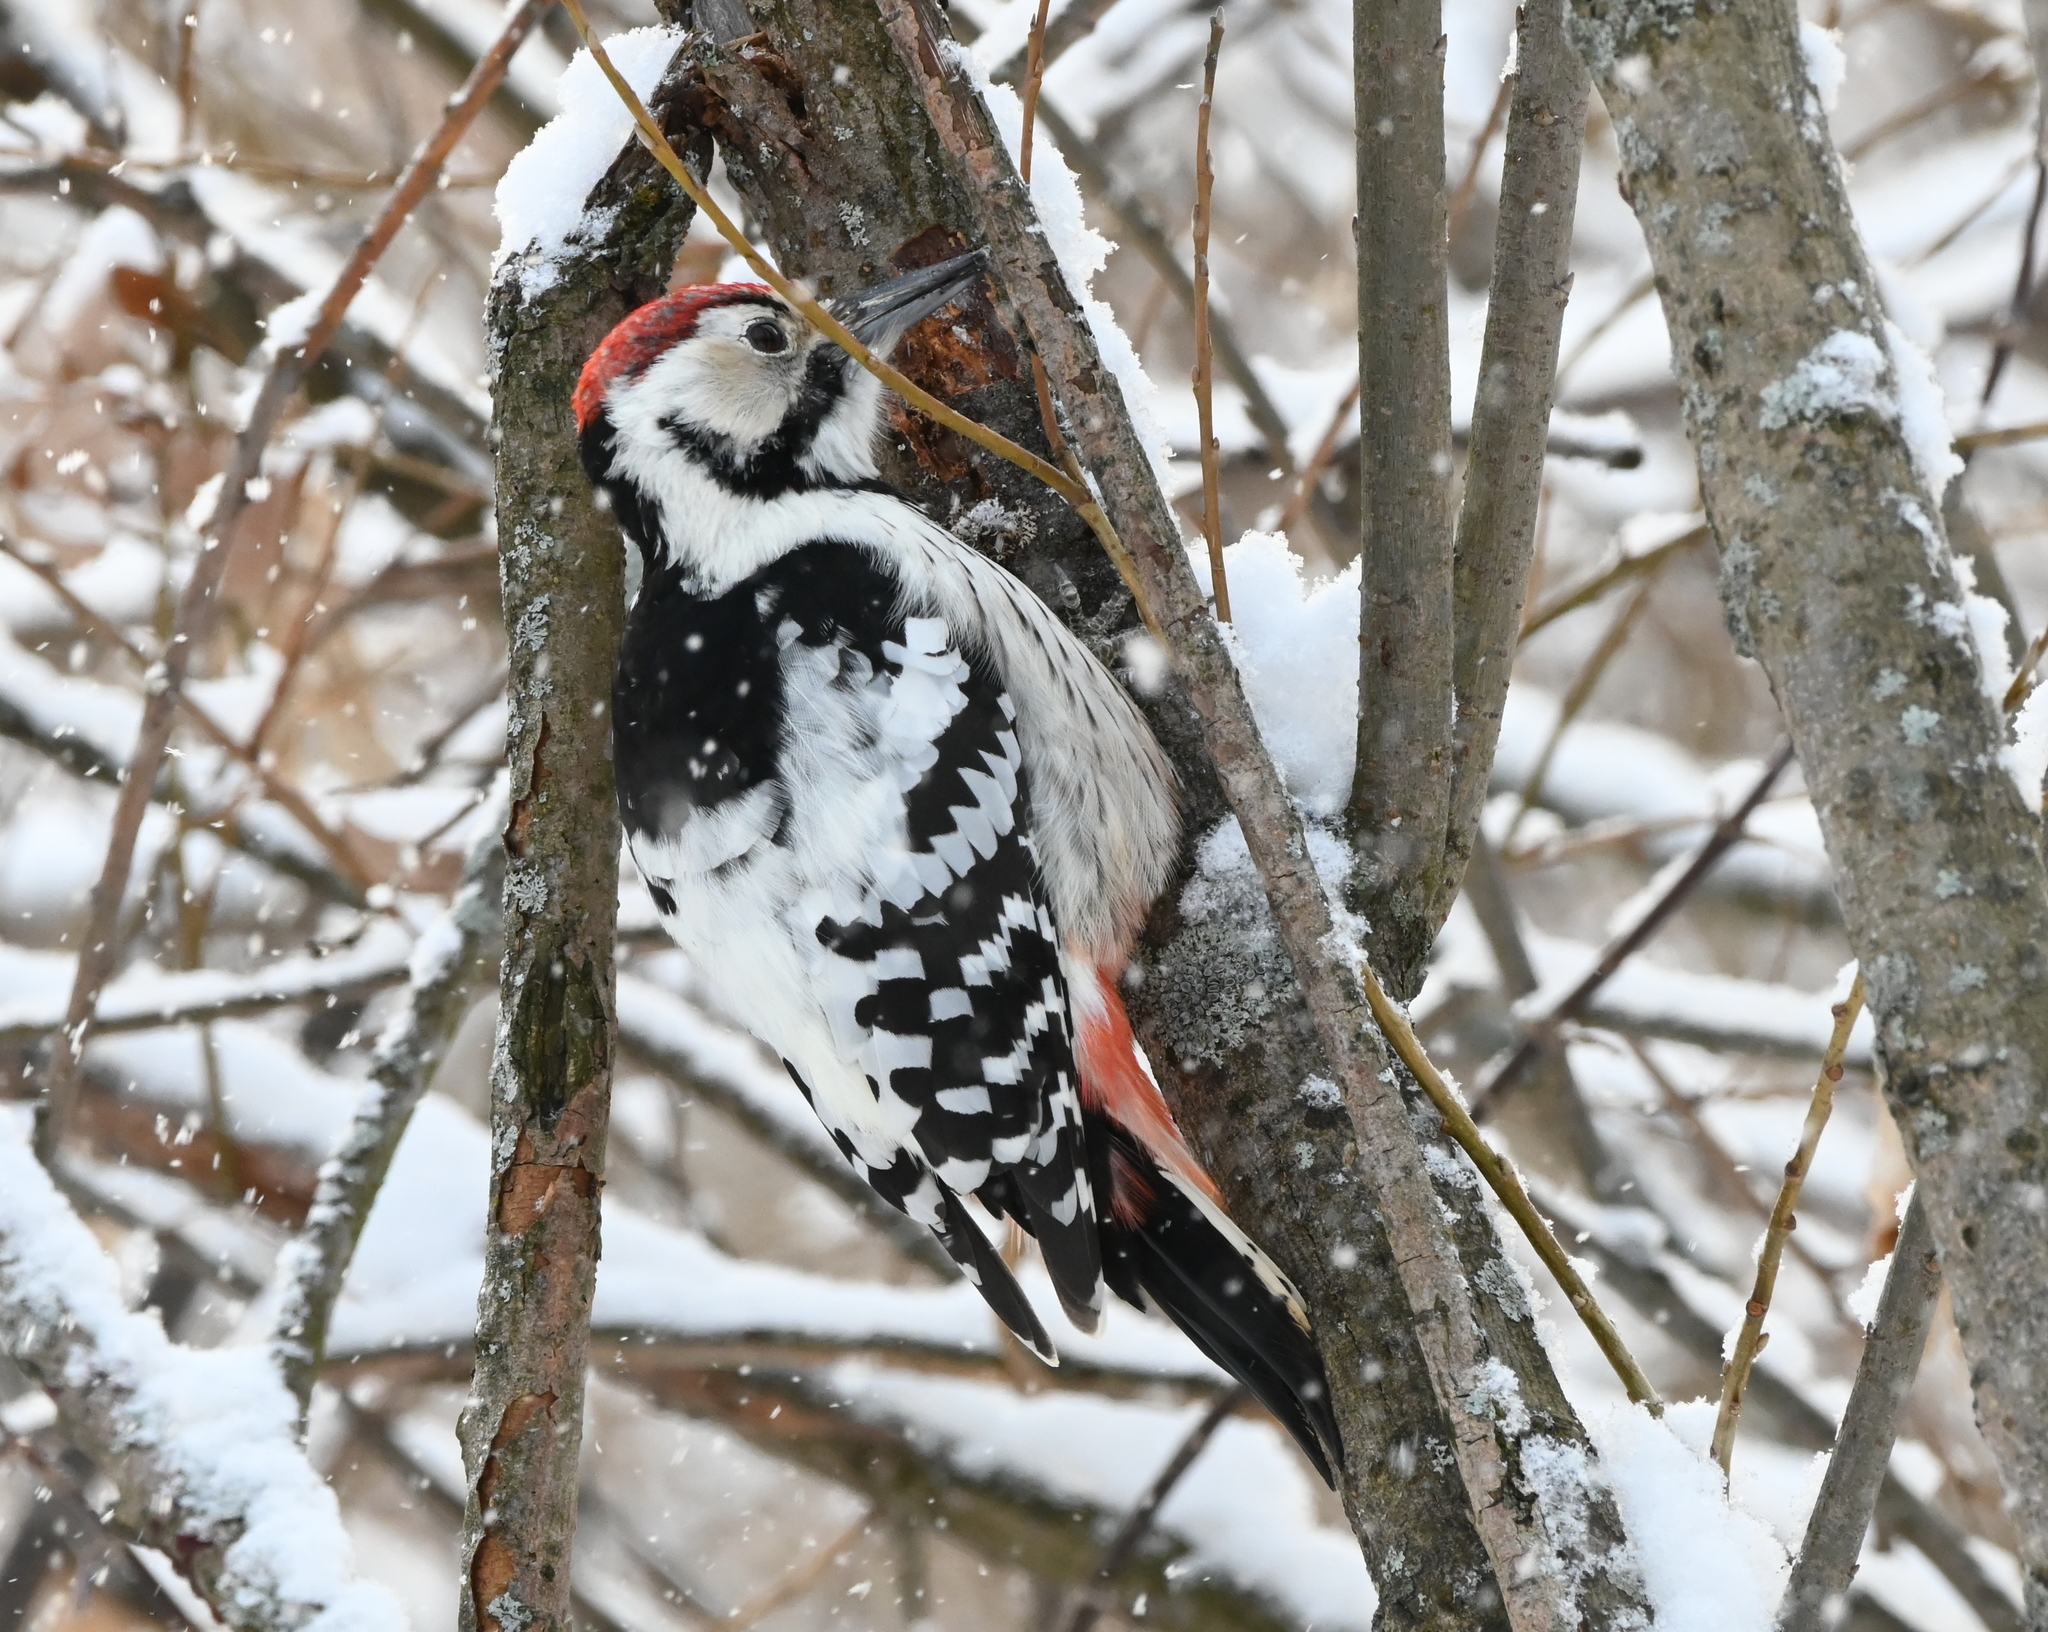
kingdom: Animalia
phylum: Chordata
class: Aves
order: Piciformes
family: Picidae
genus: Dendrocopos
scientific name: Dendrocopos leucotos
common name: White-backed woodpecker
